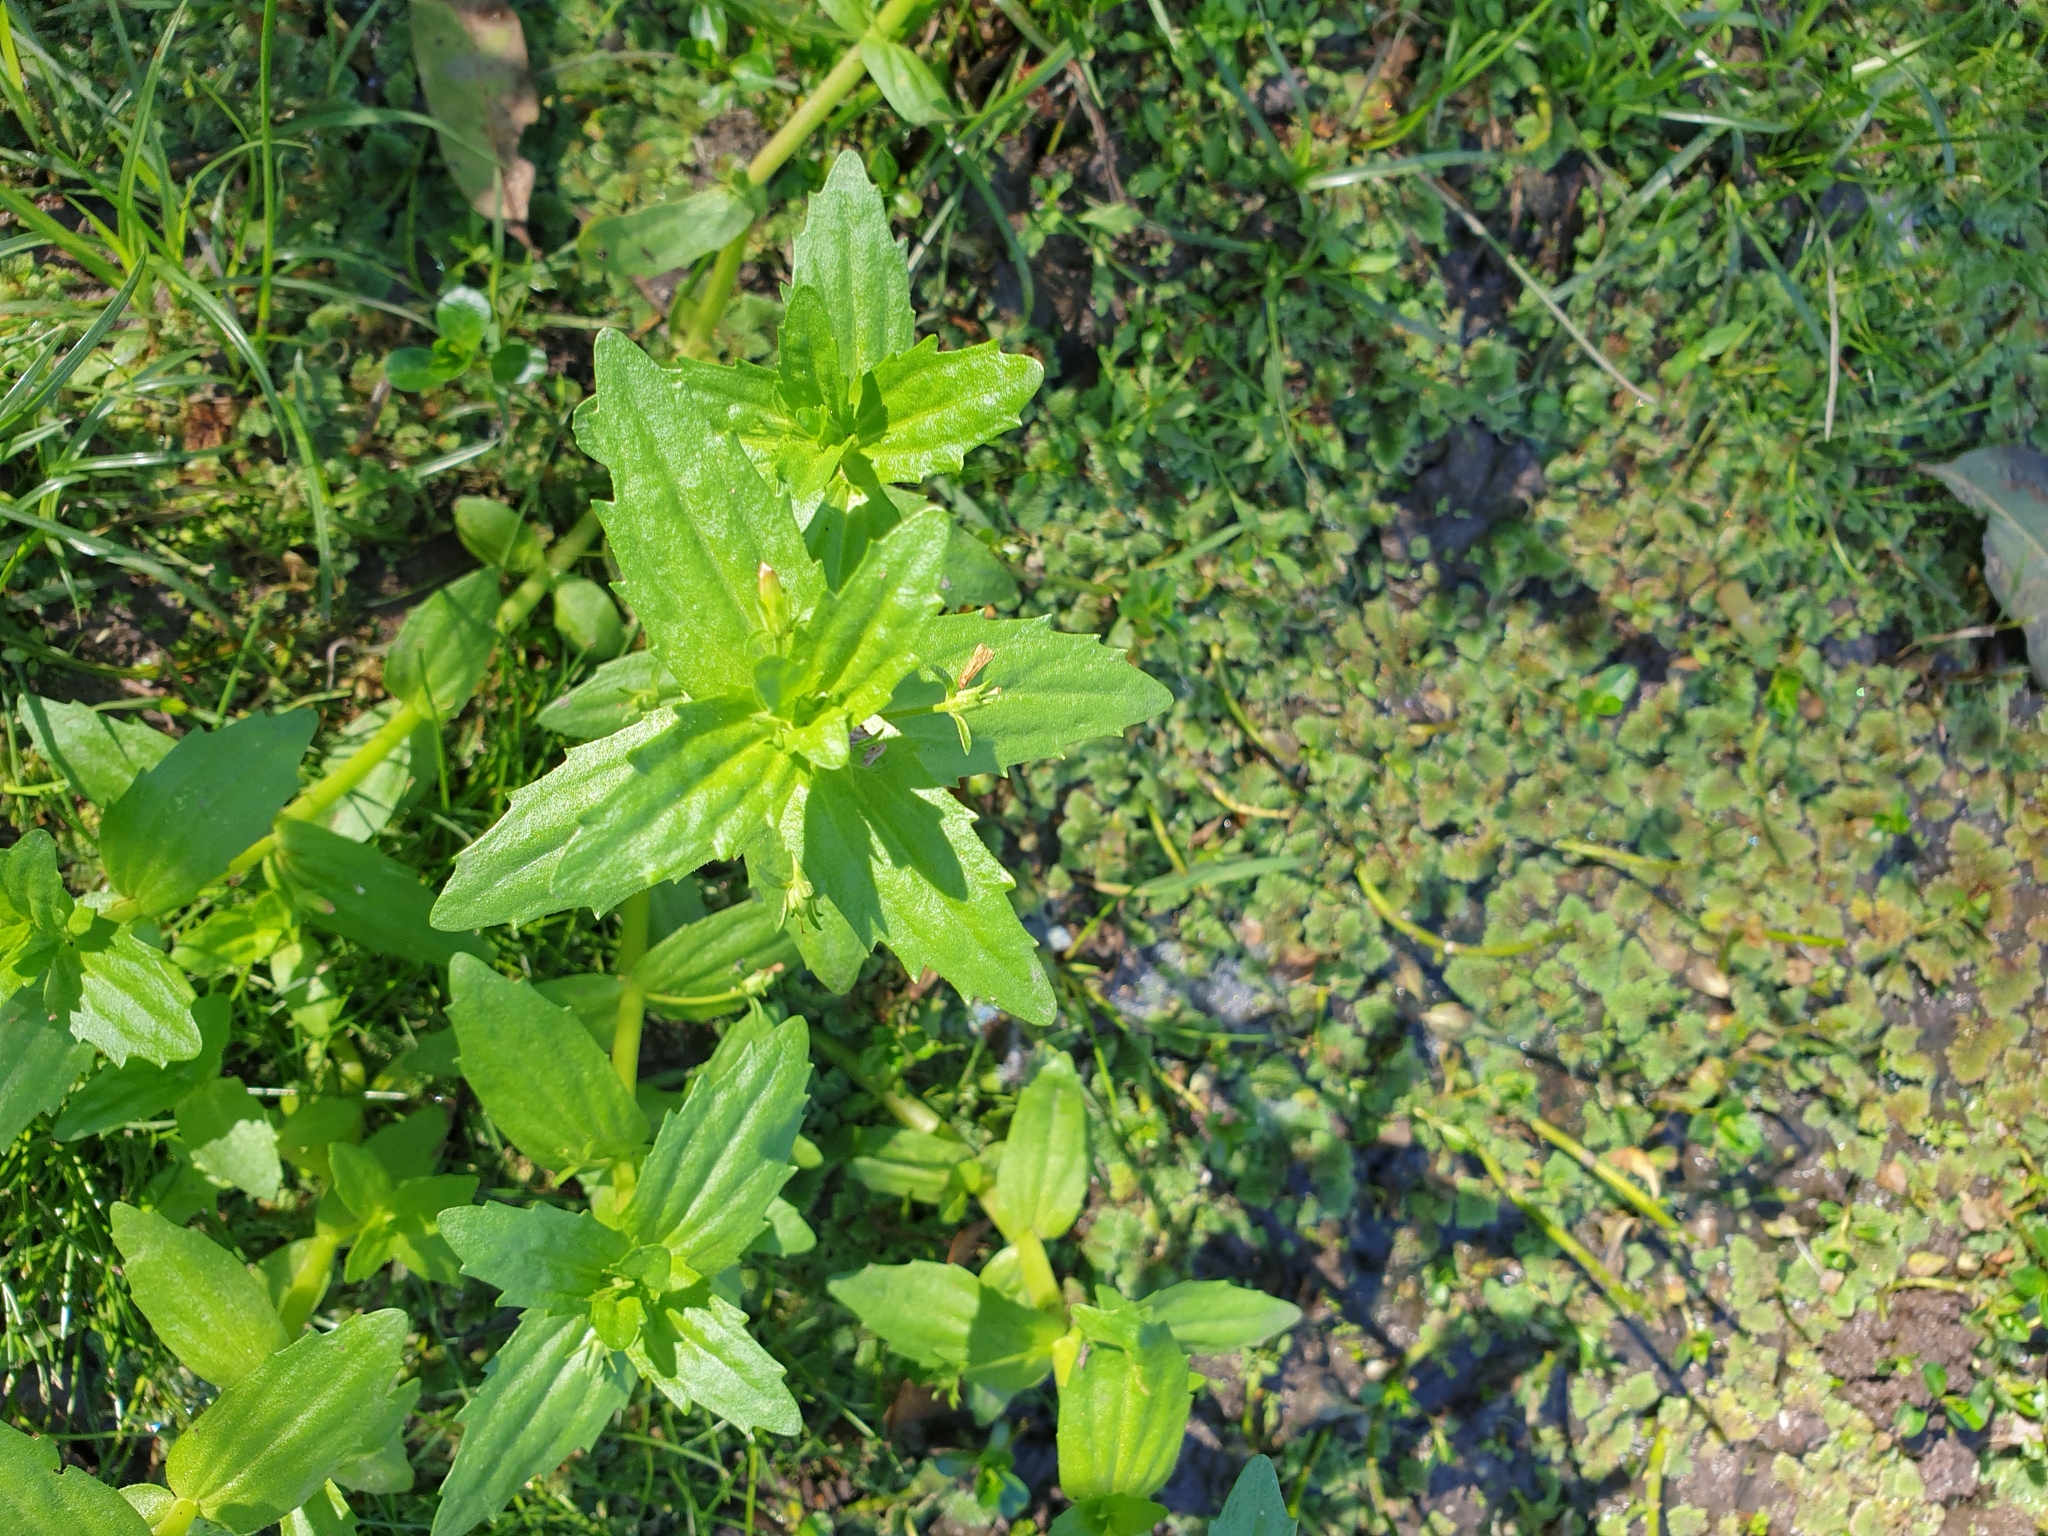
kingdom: Plantae
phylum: Tracheophyta
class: Magnoliopsida
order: Lamiales
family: Plantaginaceae
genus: Gratiola
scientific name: Gratiola pedunculata
